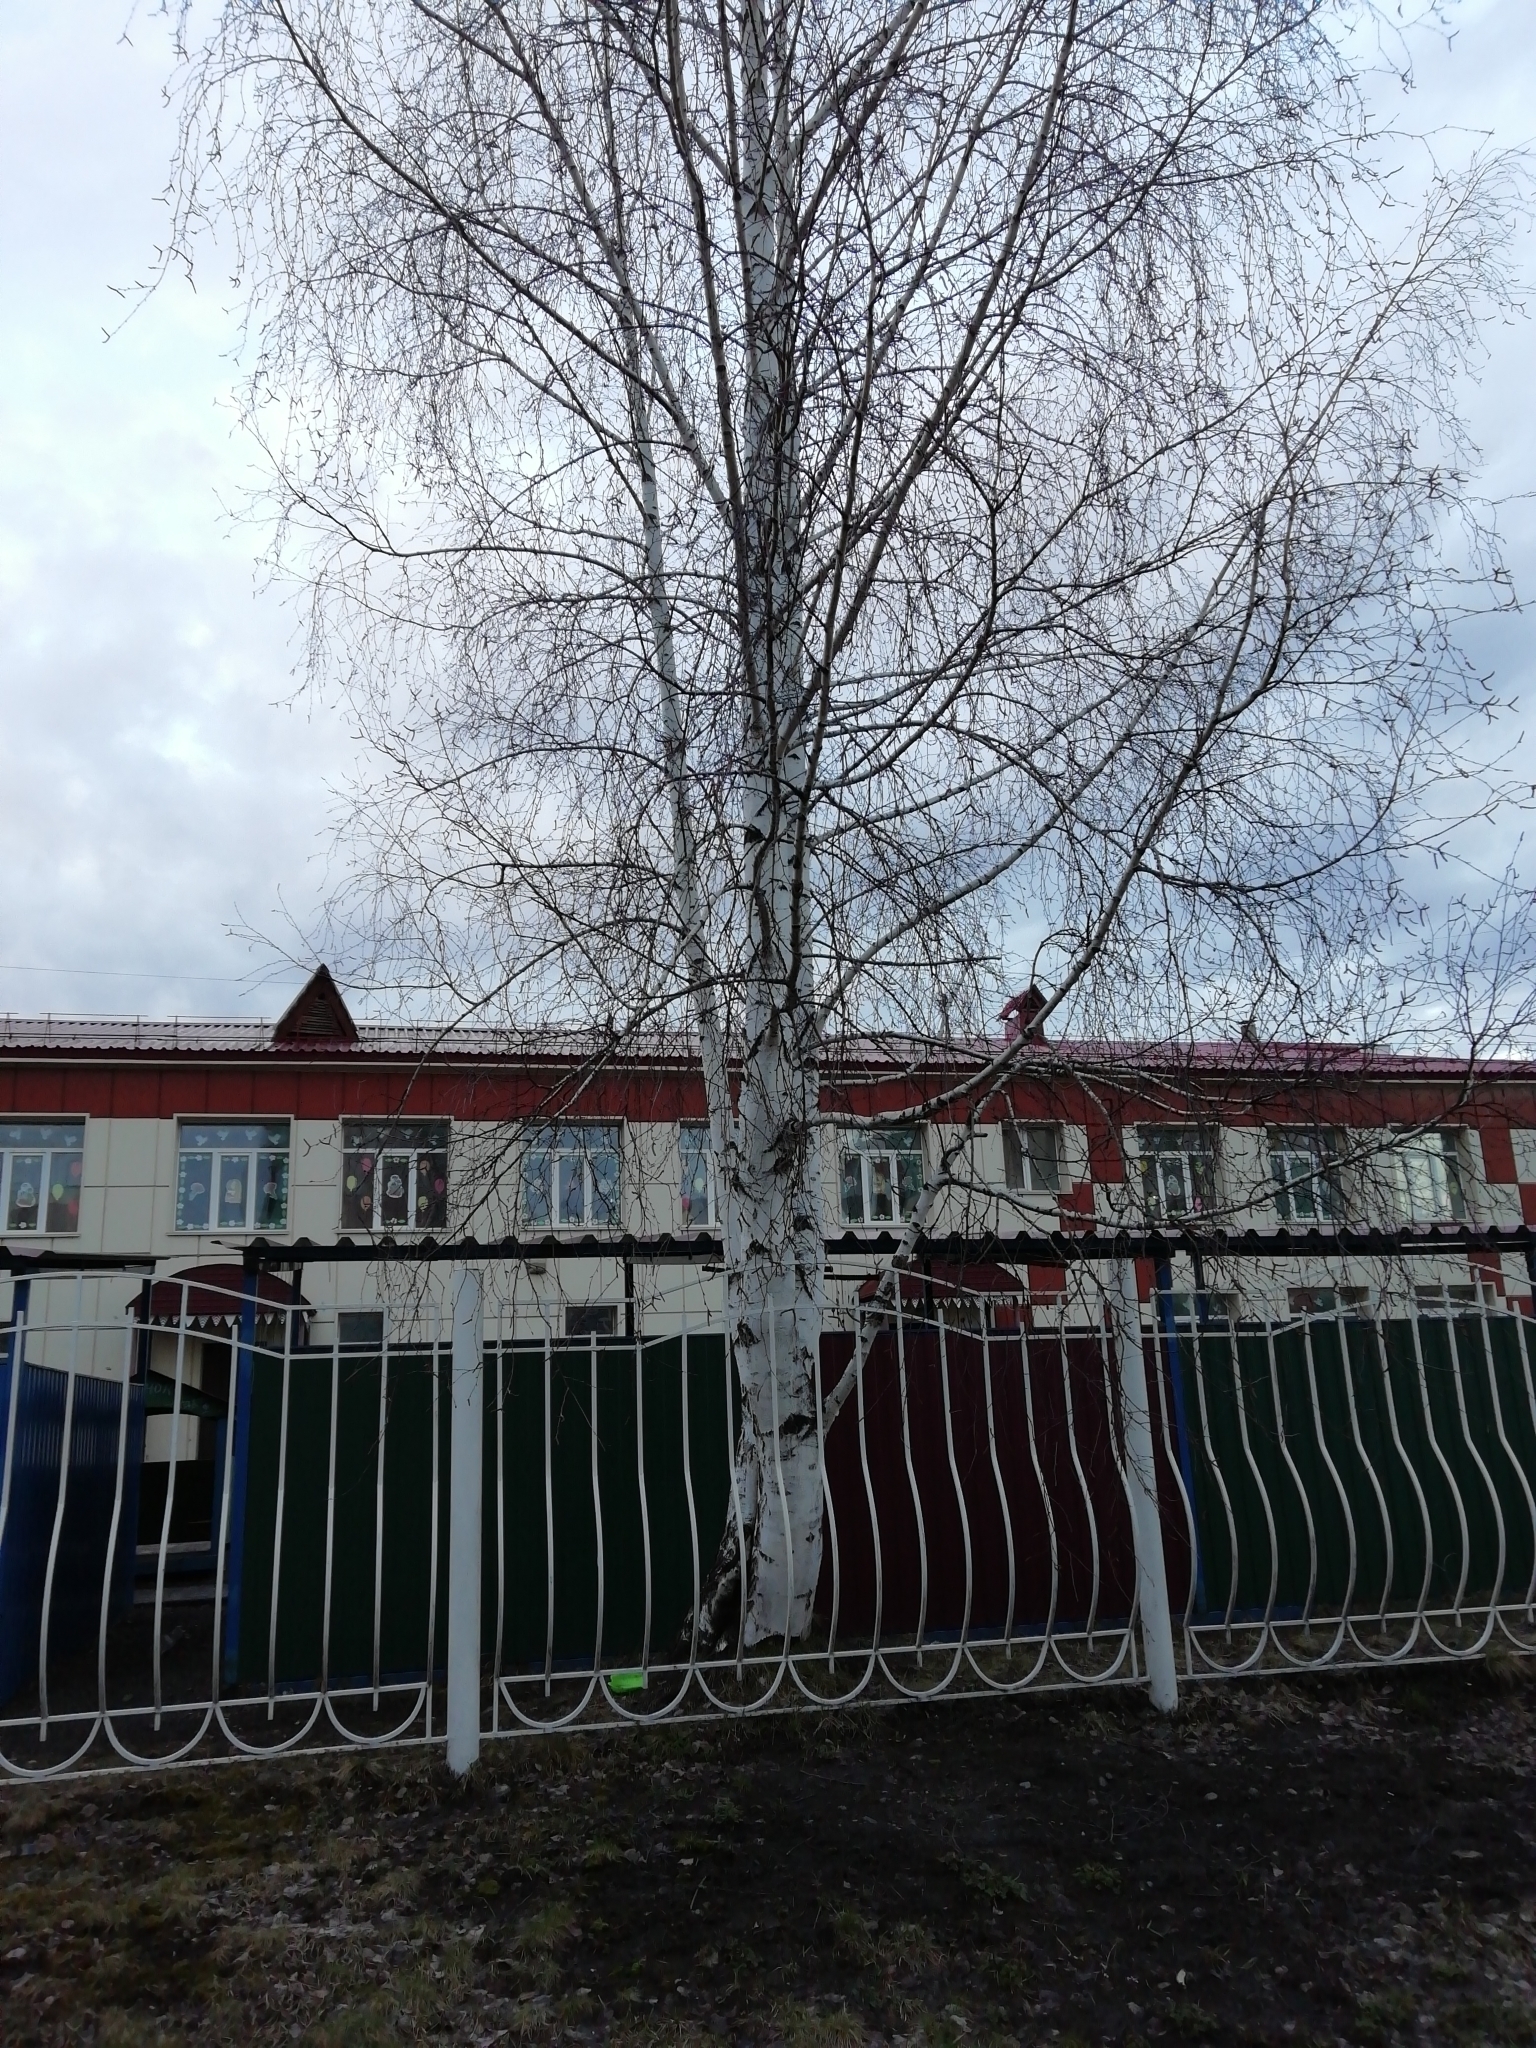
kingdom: Plantae
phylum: Tracheophyta
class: Magnoliopsida
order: Fagales
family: Betulaceae
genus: Betula
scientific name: Betula pendula
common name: Silver birch
